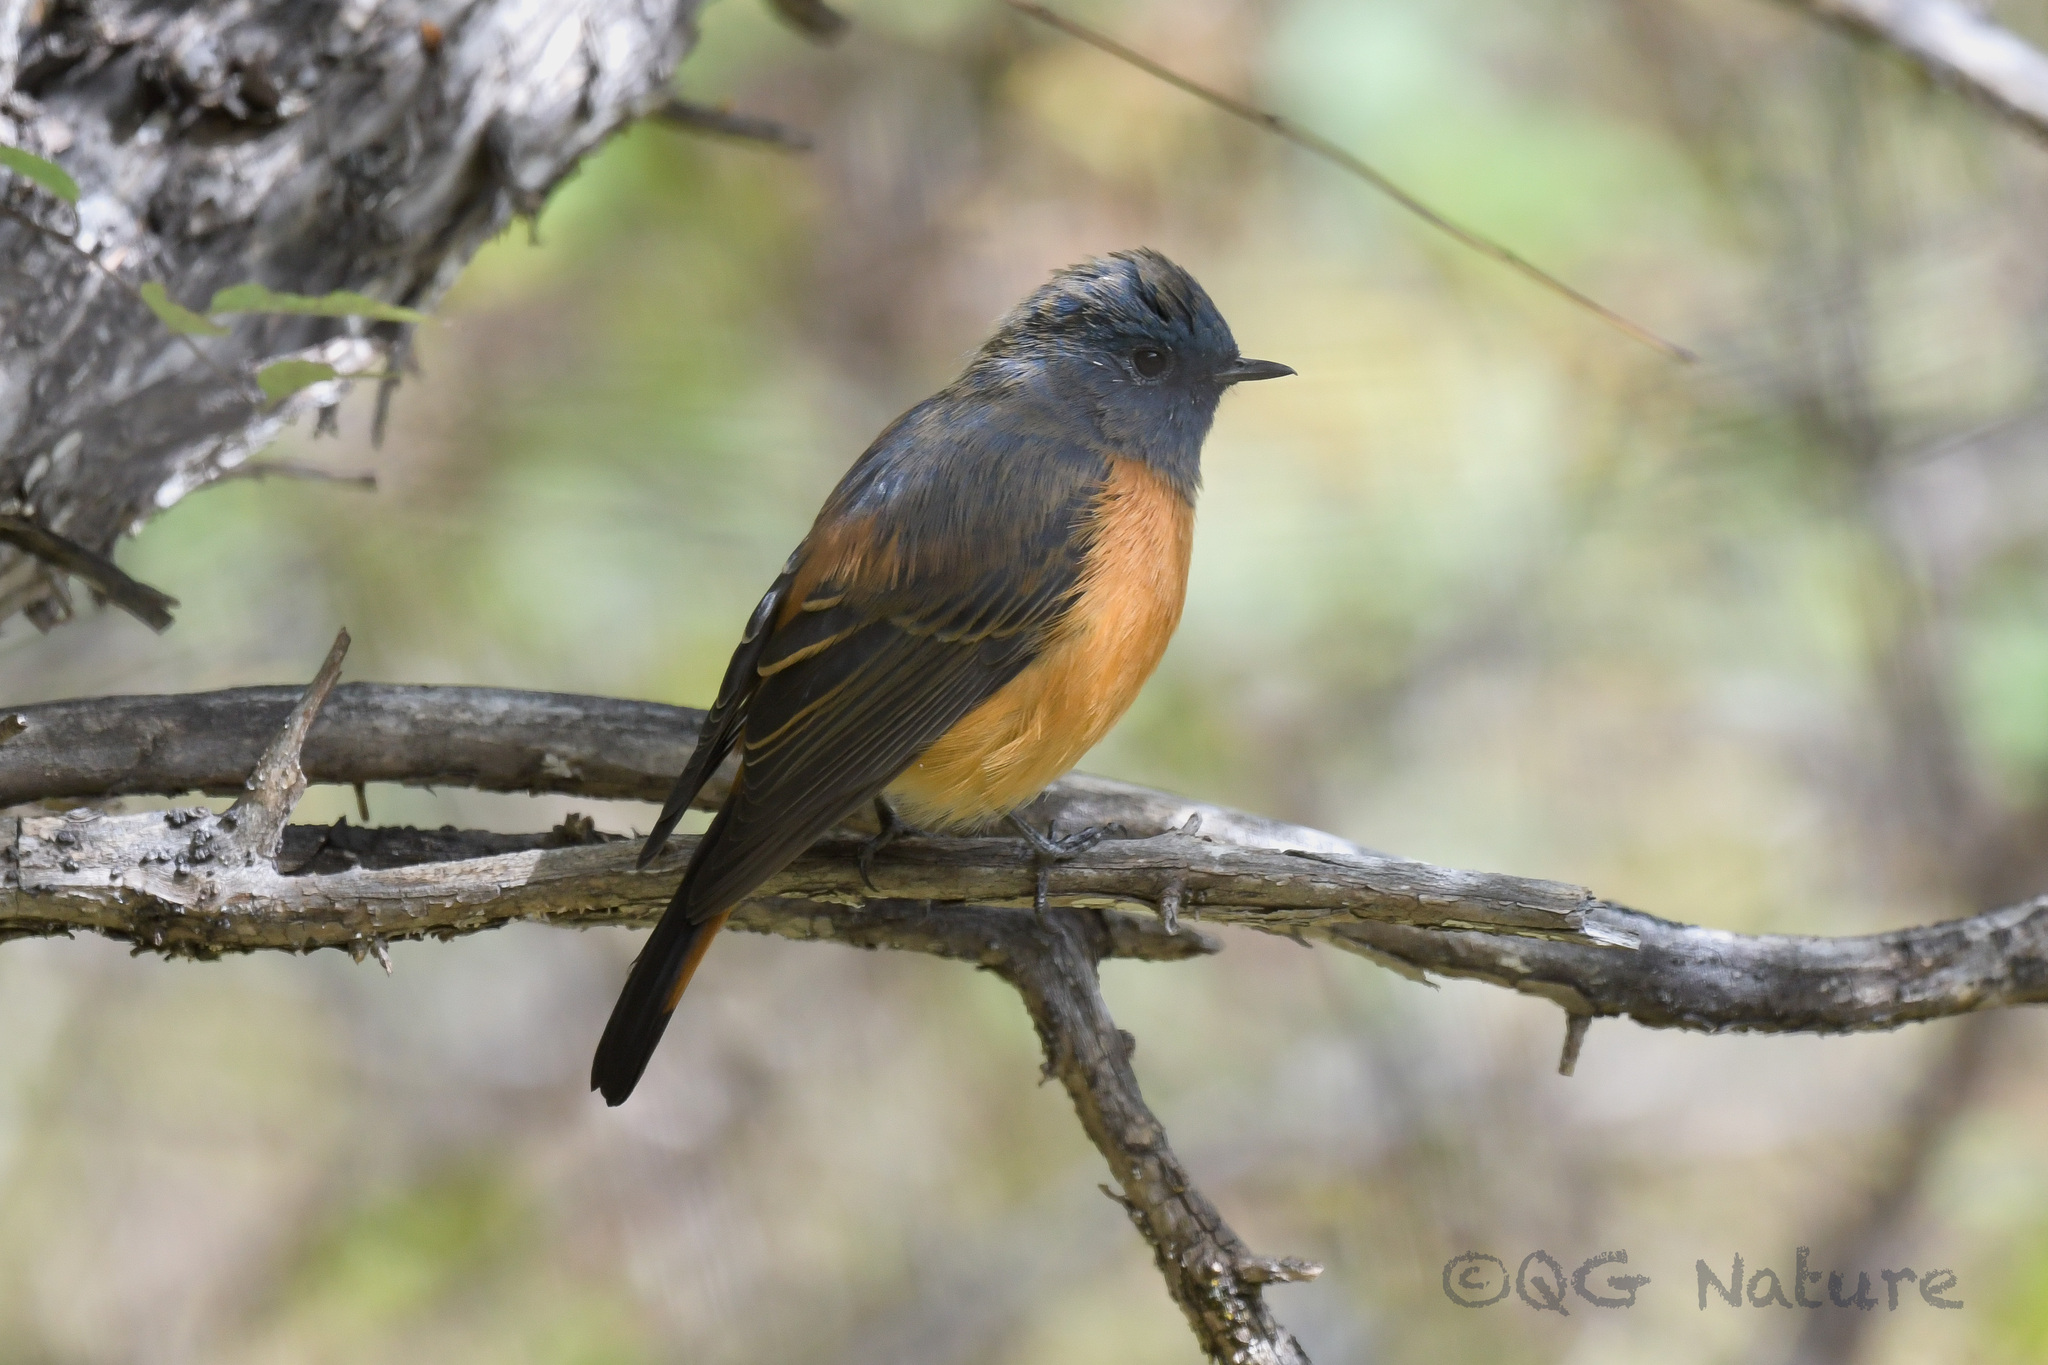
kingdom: Animalia
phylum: Chordata
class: Aves
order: Passeriformes
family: Muscicapidae
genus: Phoenicurus
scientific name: Phoenicurus frontalis
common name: Blue-fronted redstart
